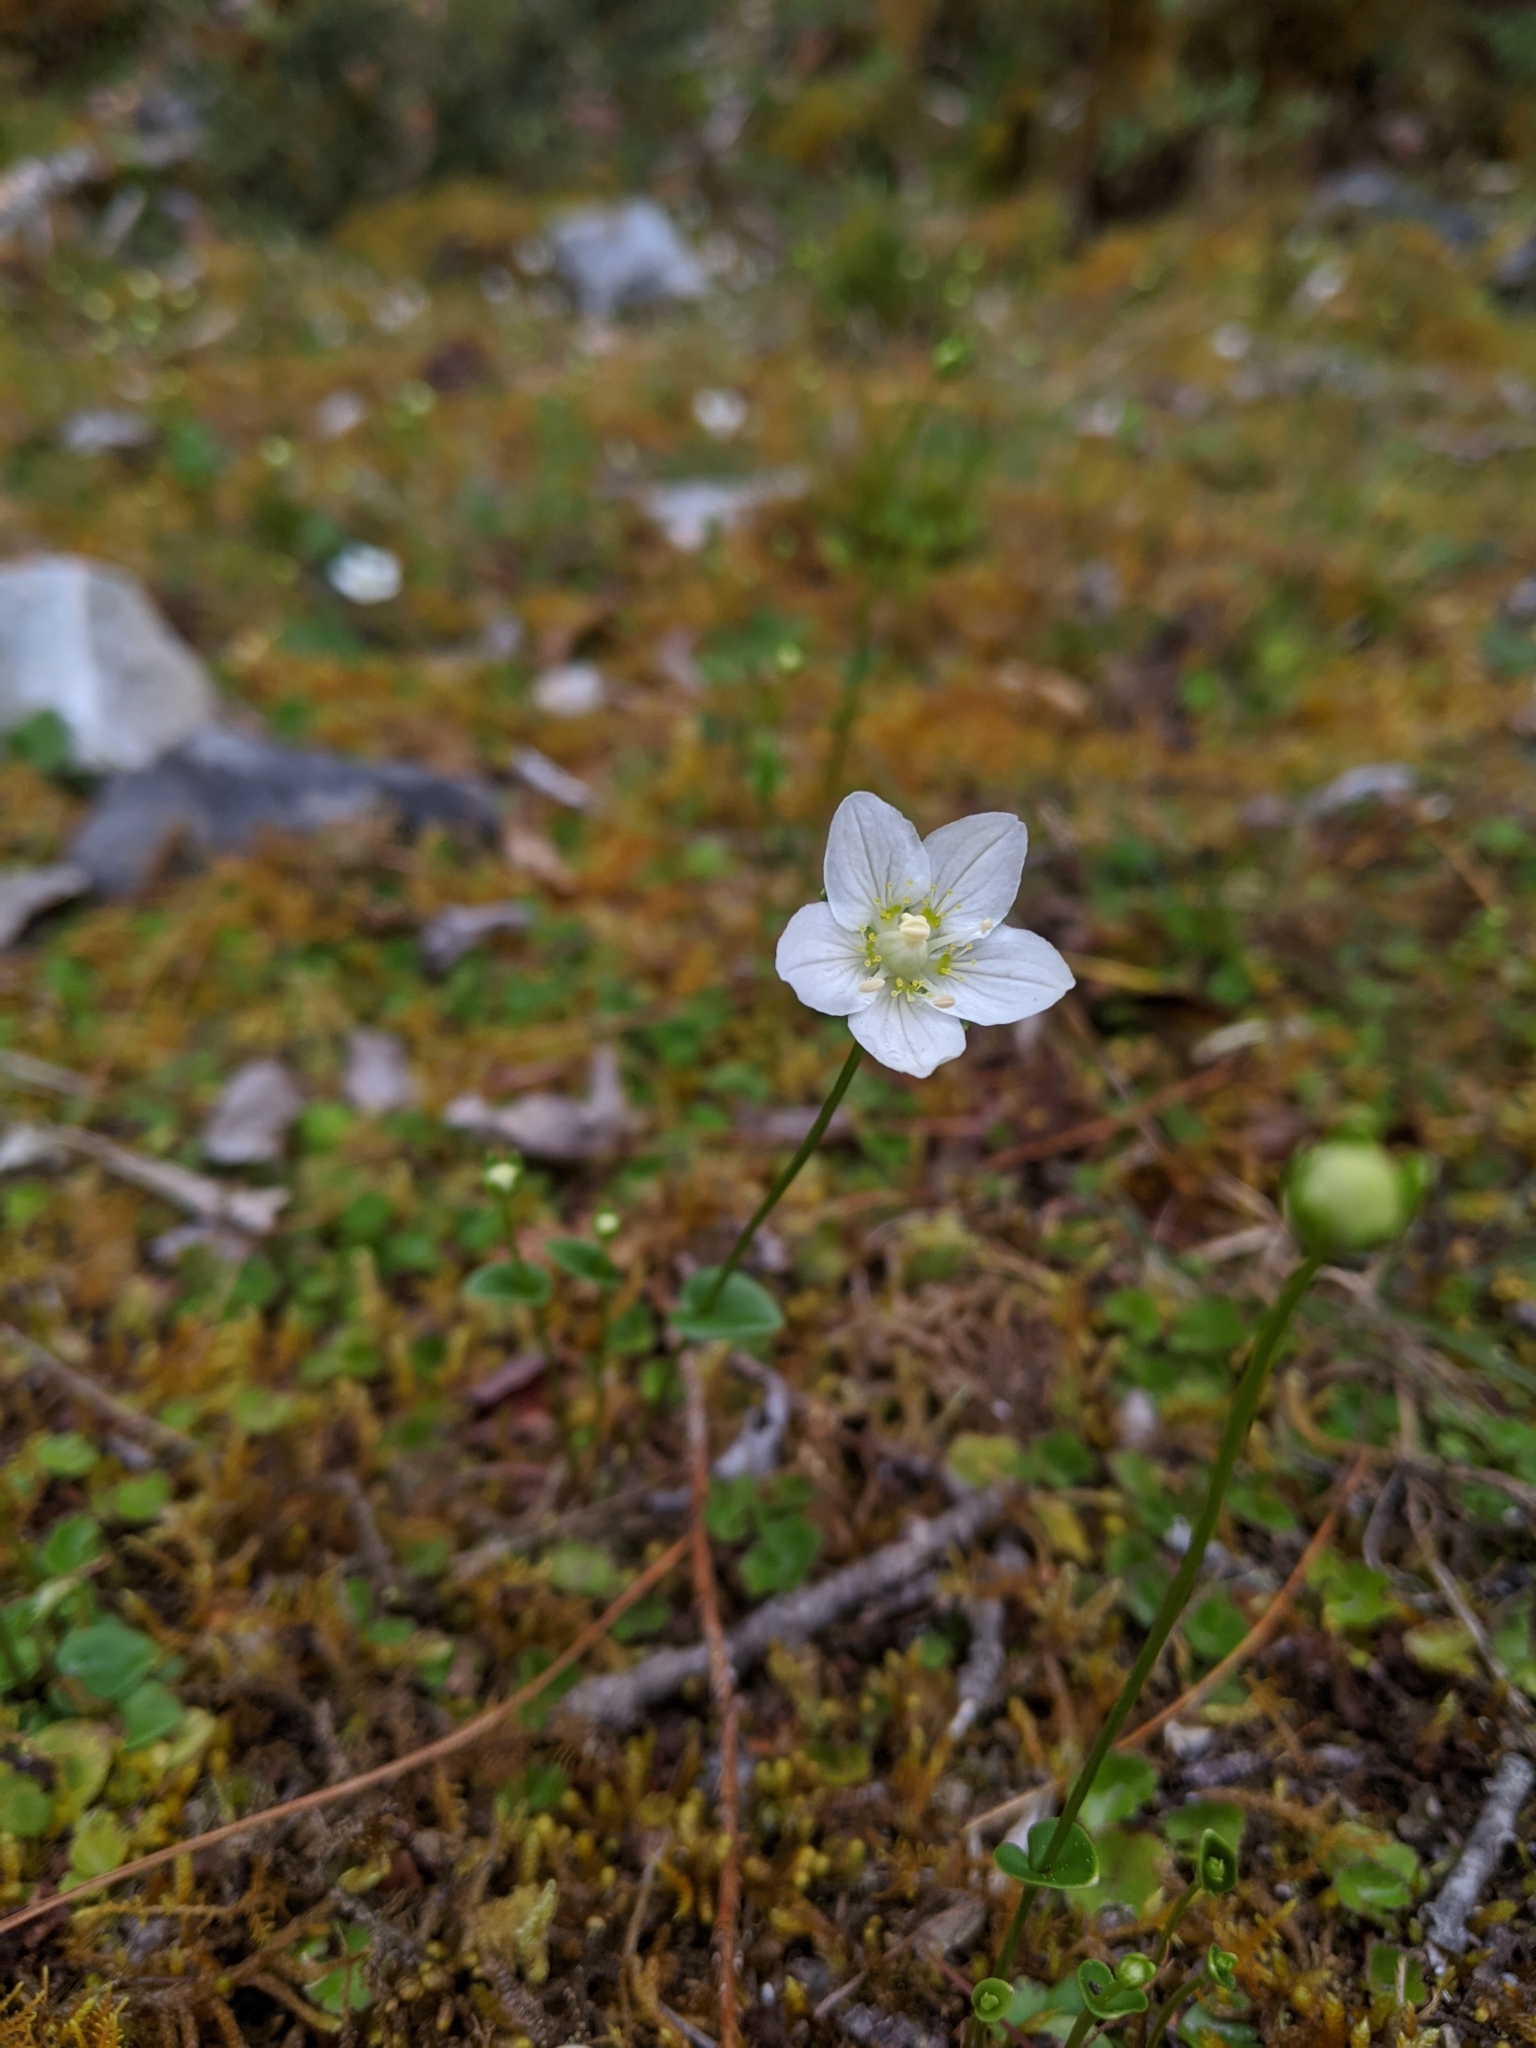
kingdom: Plantae
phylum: Tracheophyta
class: Magnoliopsida
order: Celastrales
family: Parnassiaceae
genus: Parnassia
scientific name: Parnassia palustris
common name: Grass-of-parnassus
